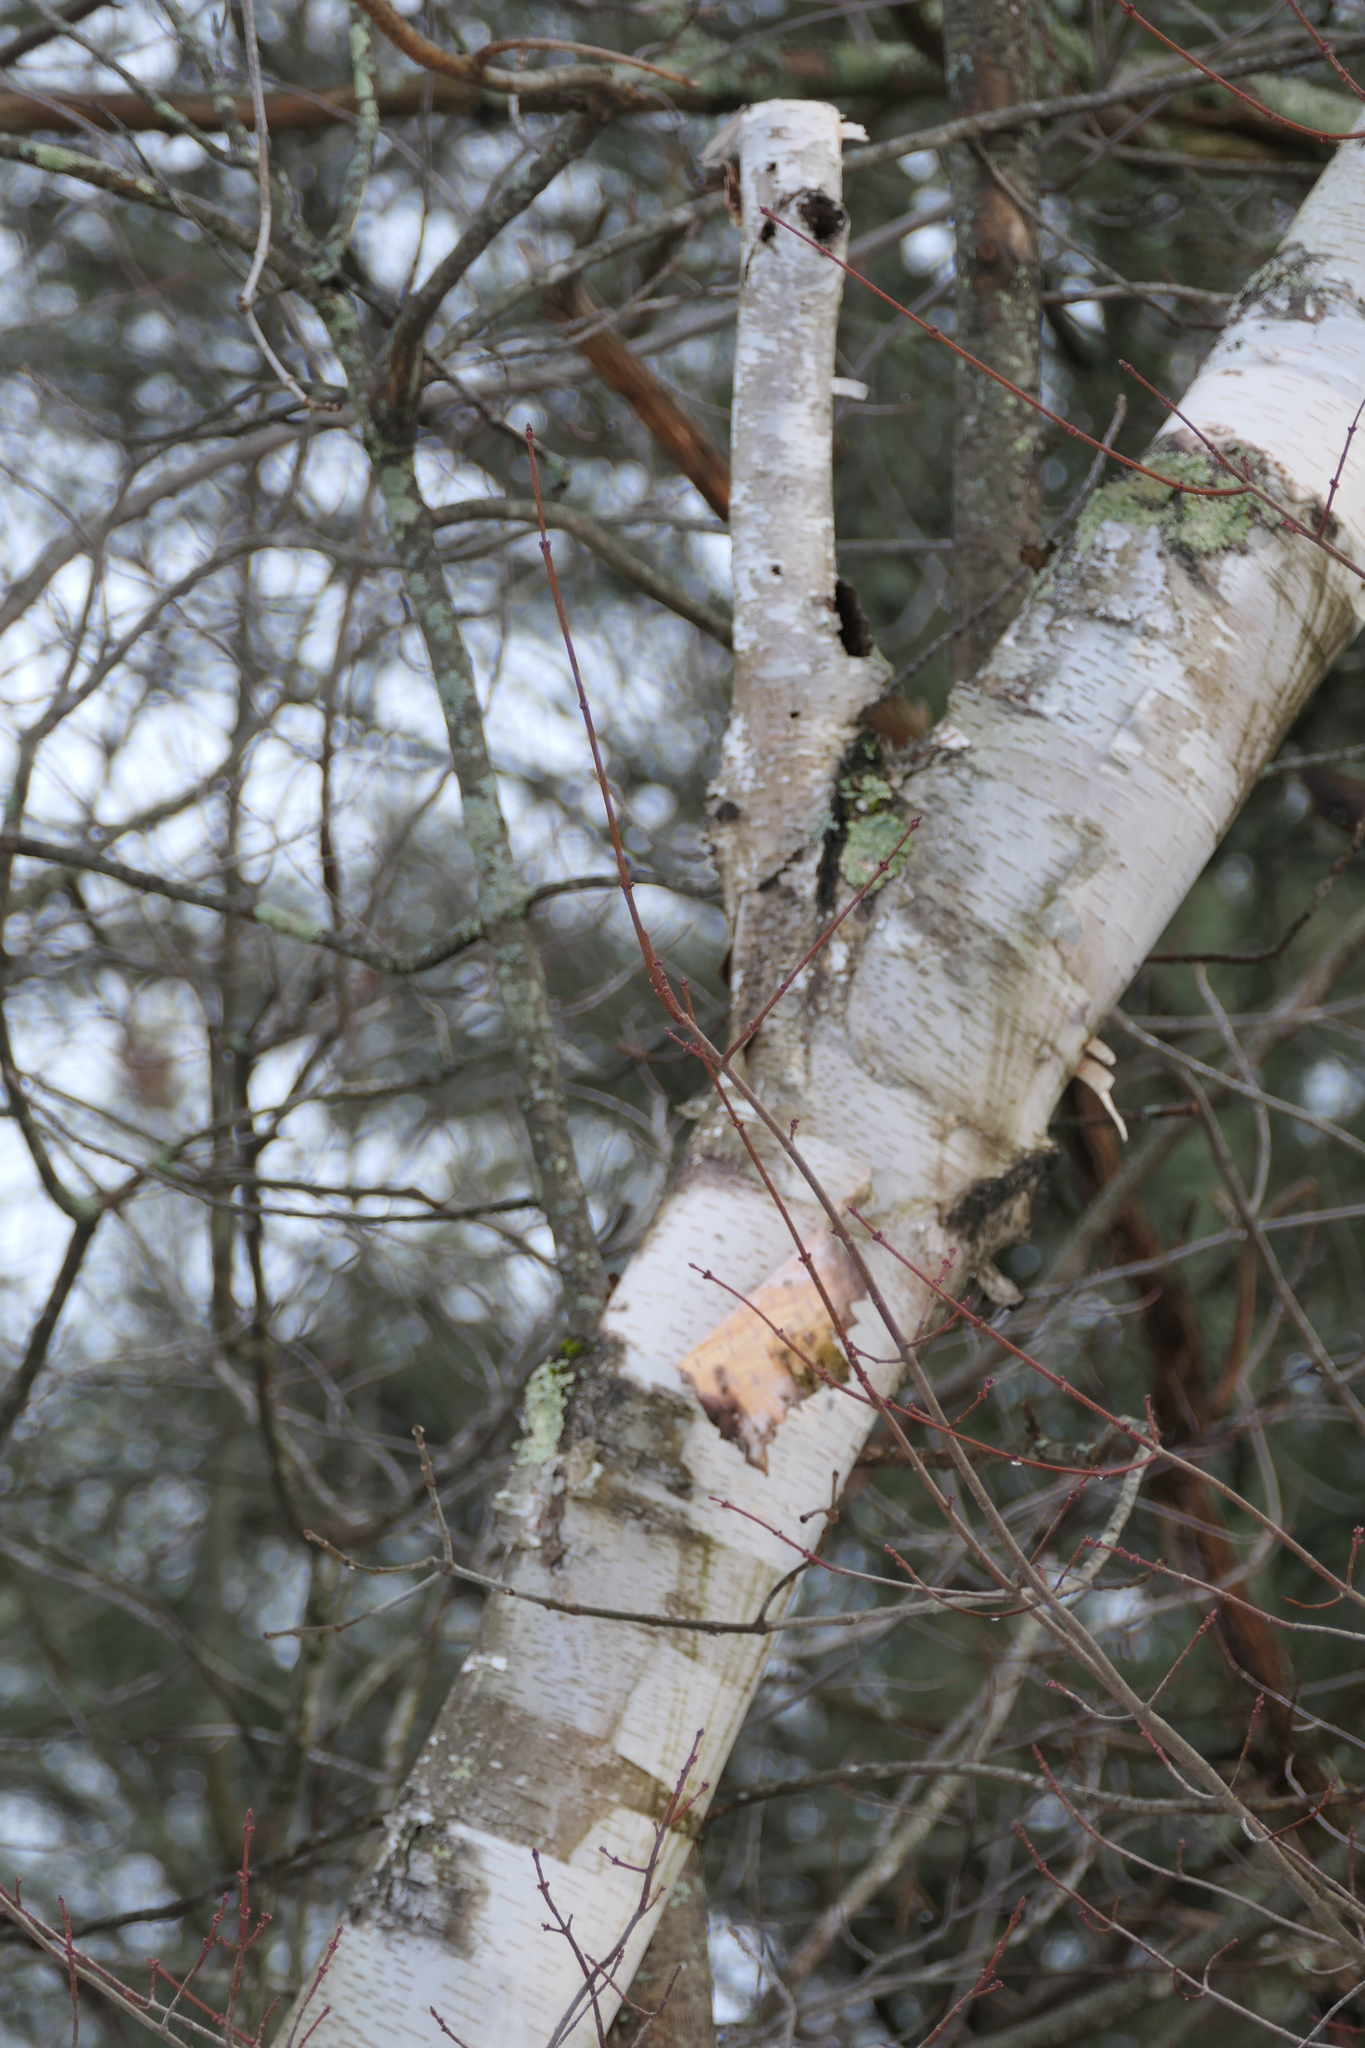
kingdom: Plantae
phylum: Tracheophyta
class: Magnoliopsida
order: Fagales
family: Betulaceae
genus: Betula
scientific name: Betula papyrifera
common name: Paper birch
